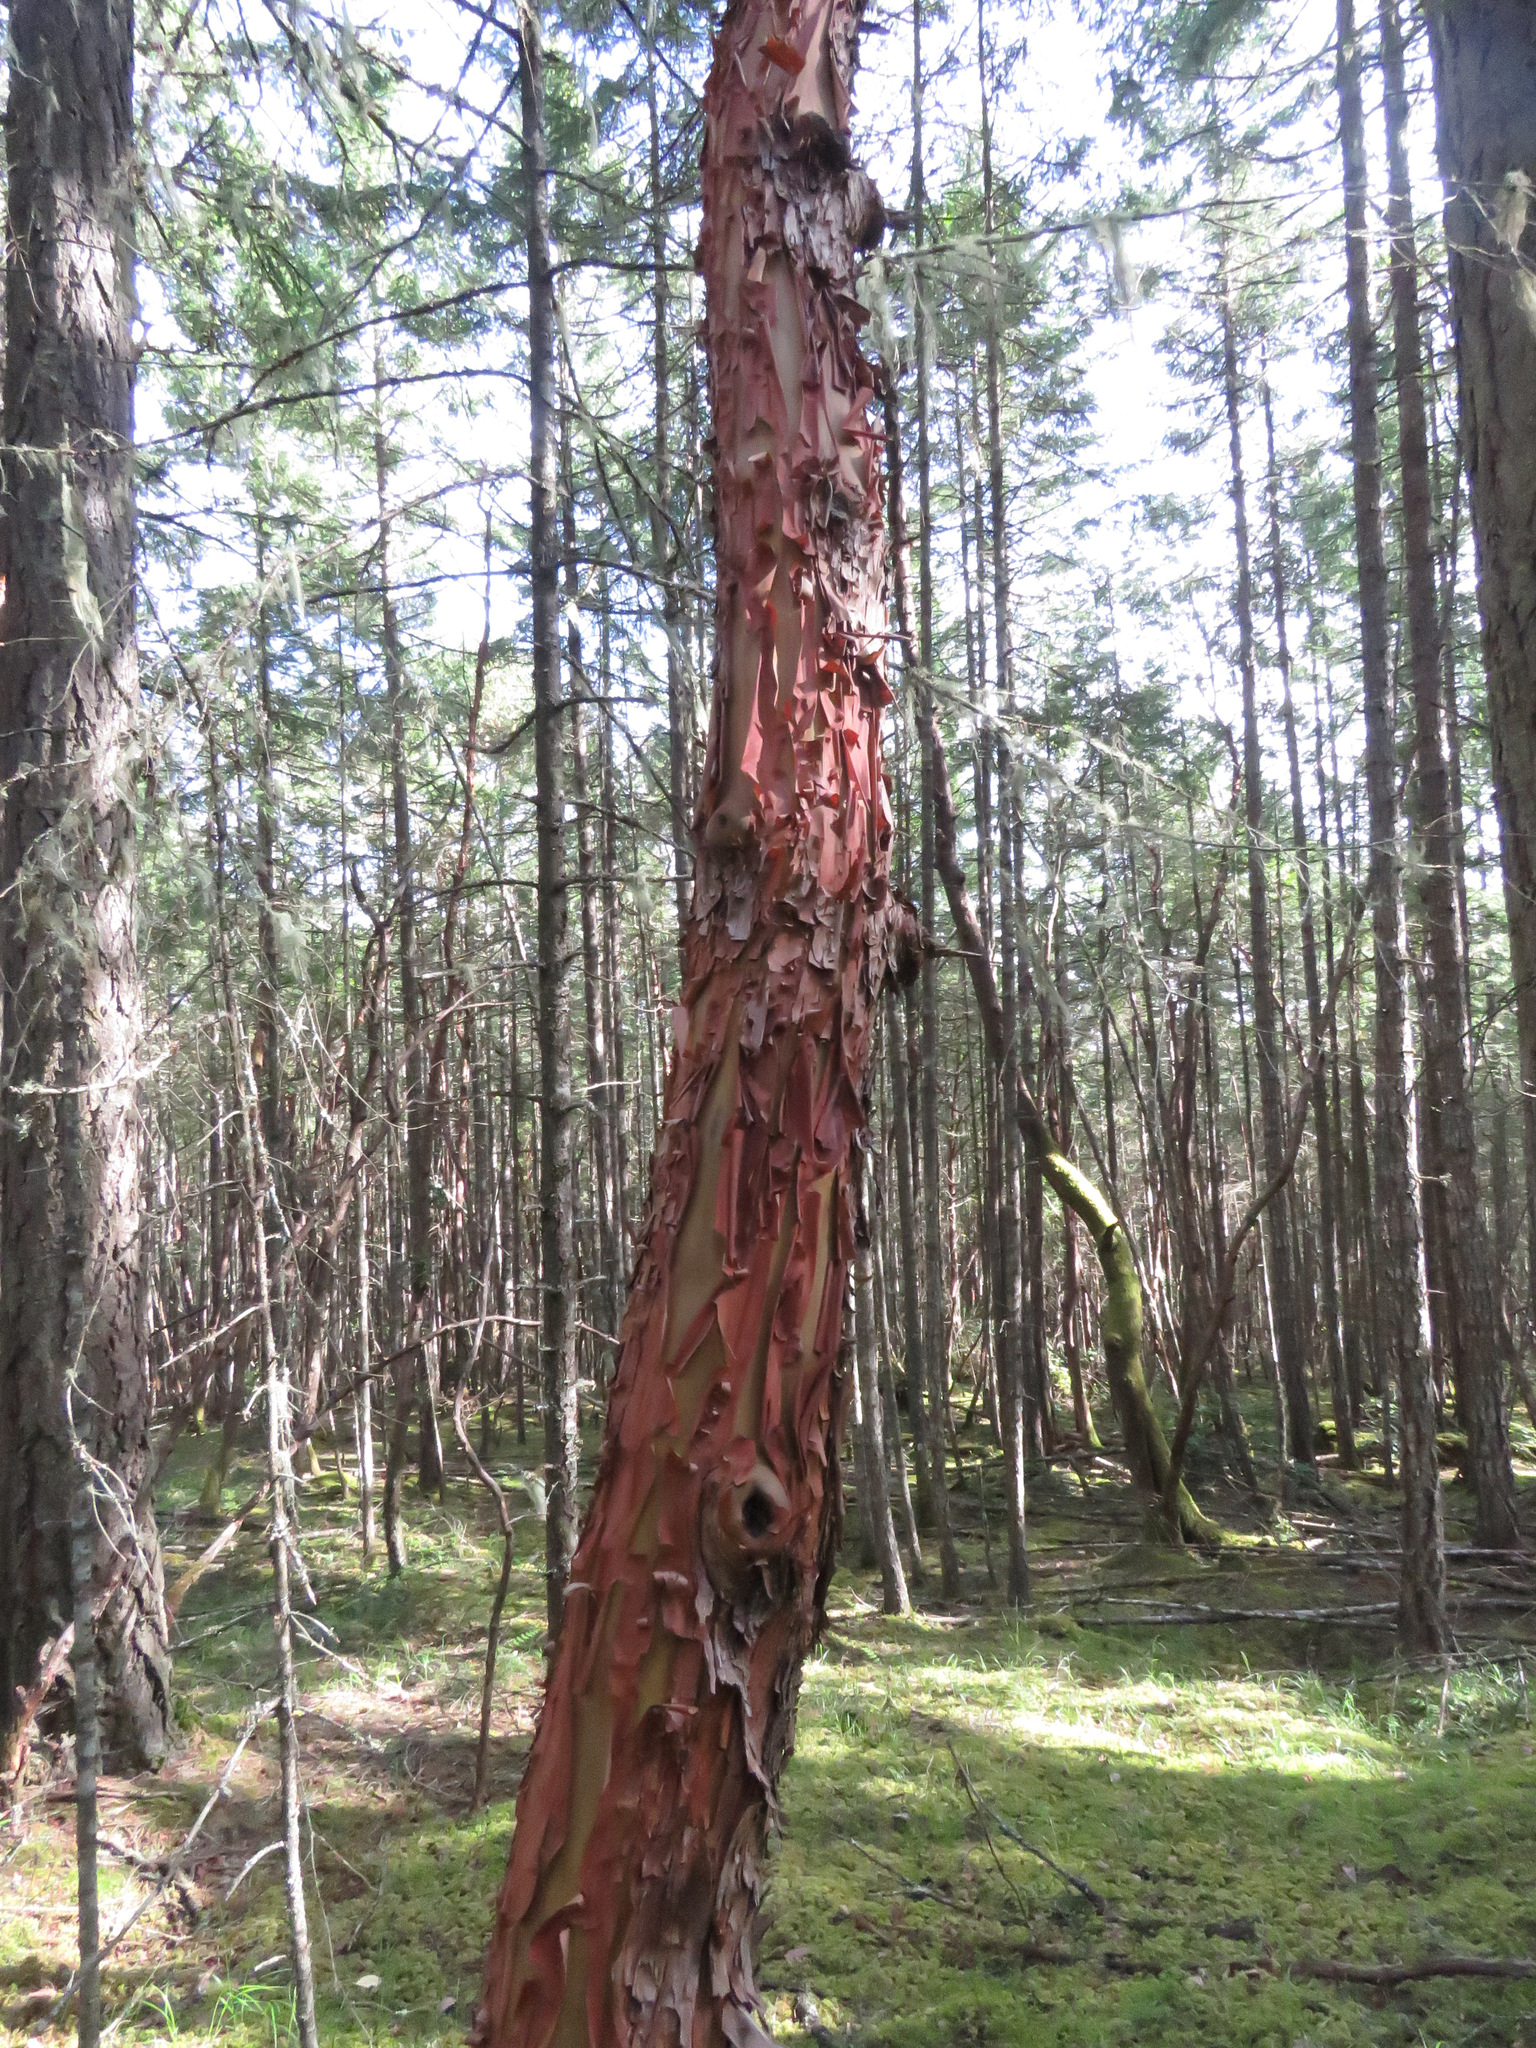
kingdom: Plantae
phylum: Tracheophyta
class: Magnoliopsida
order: Ericales
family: Ericaceae
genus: Arbutus
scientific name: Arbutus menziesii
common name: Pacific madrone
